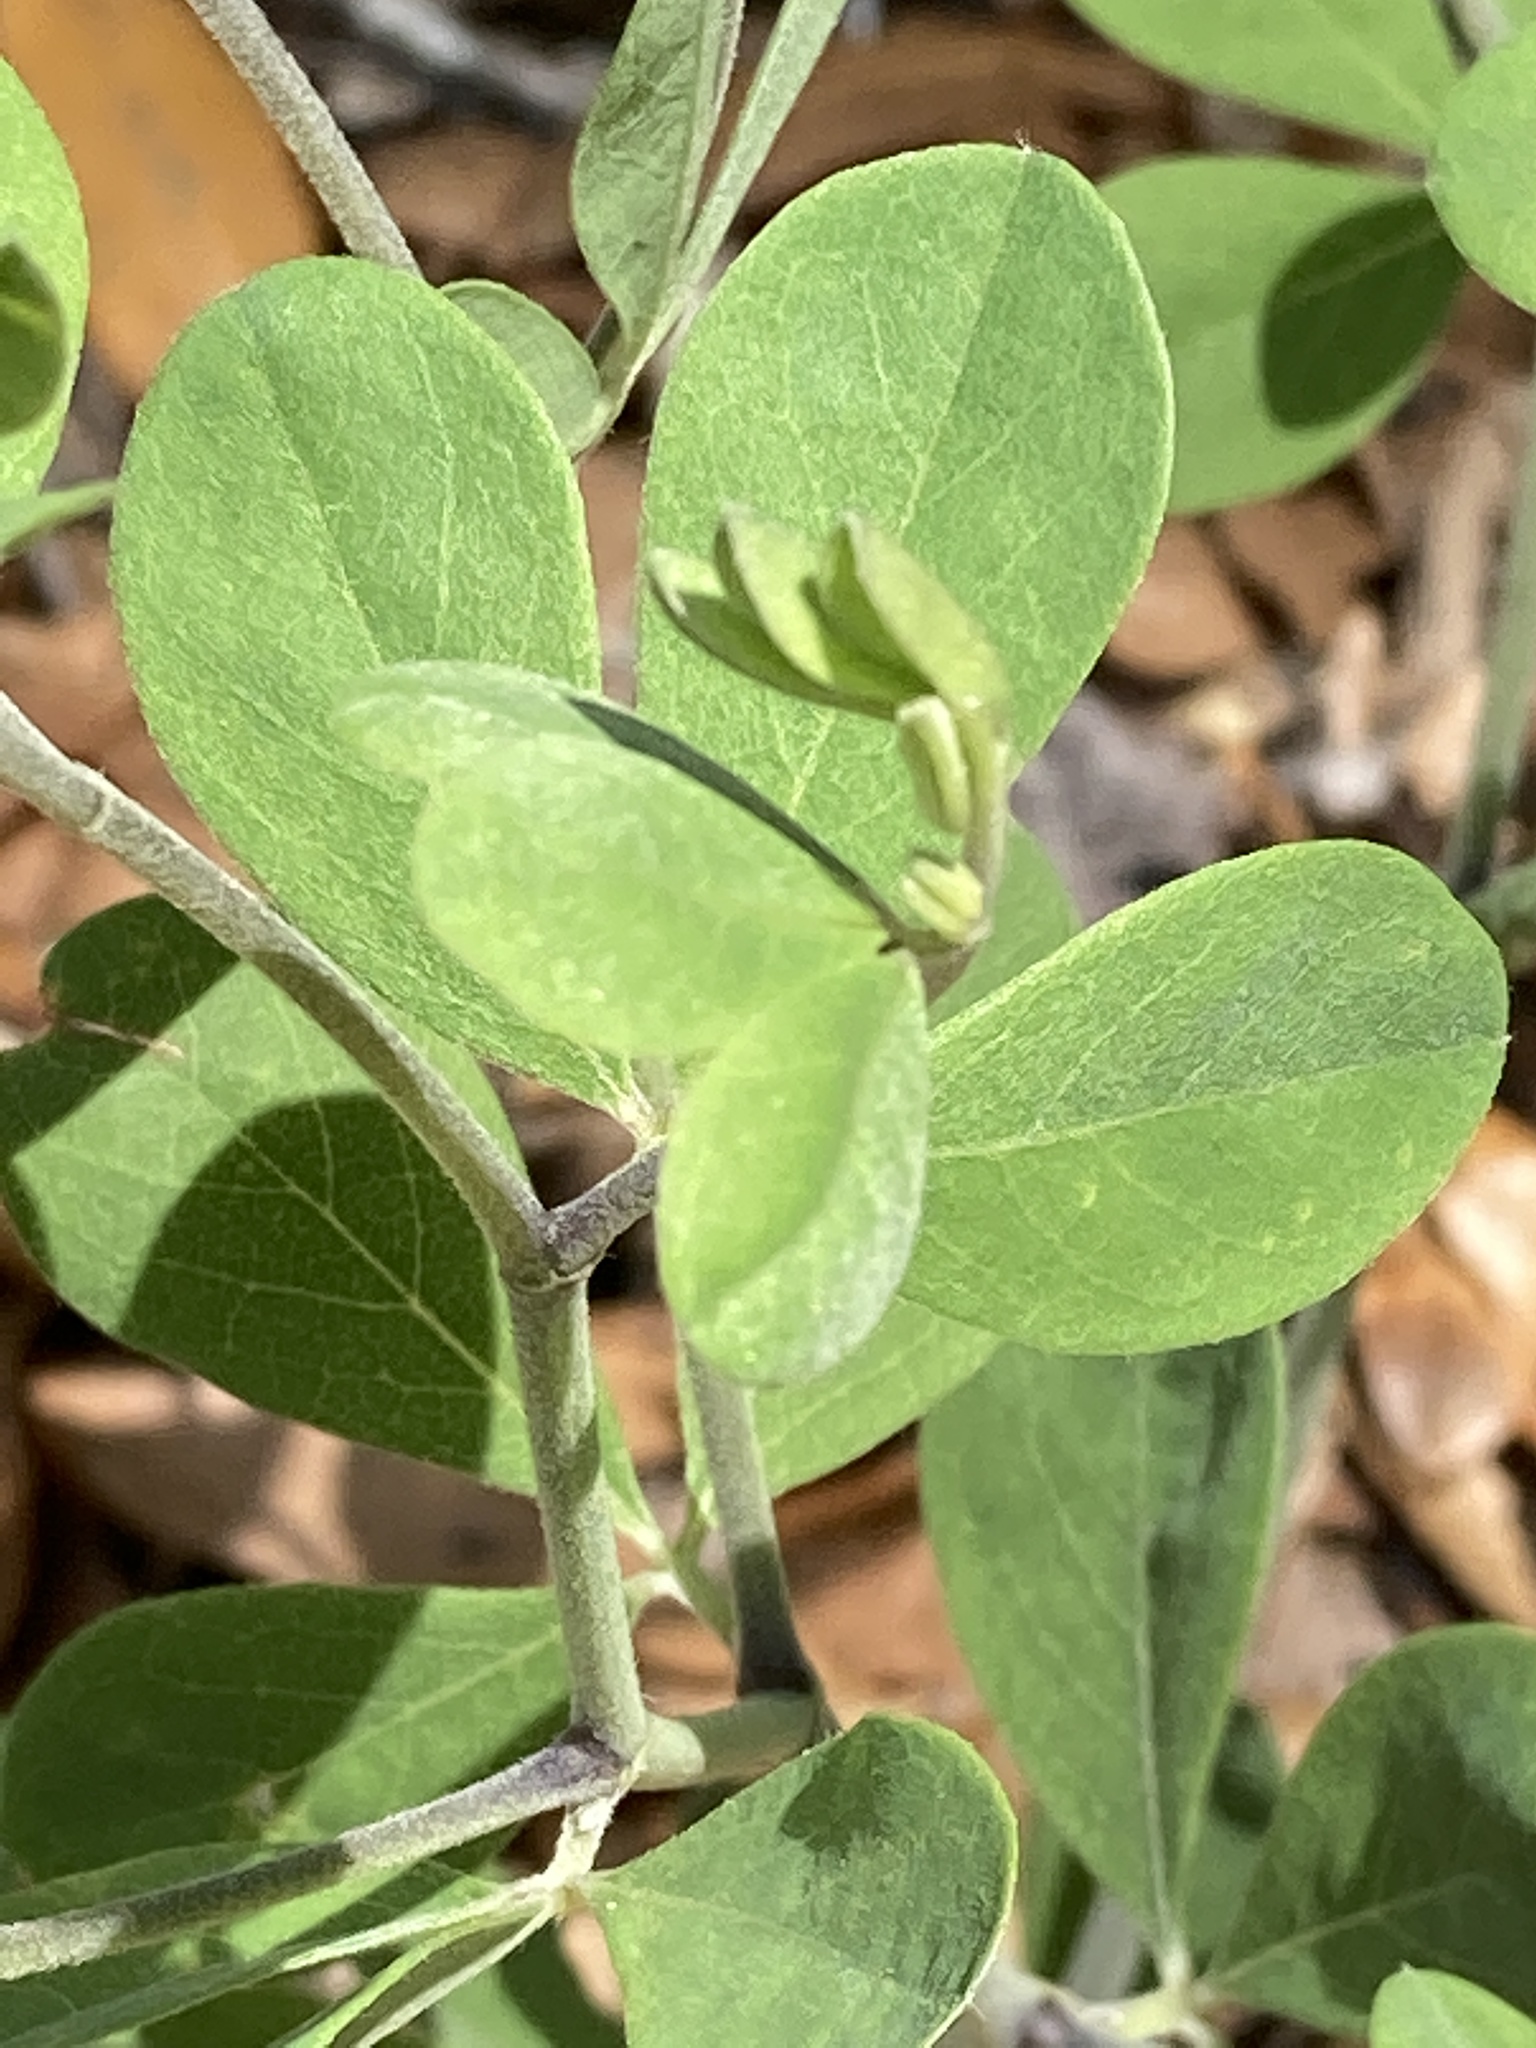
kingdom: Plantae
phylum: Tracheophyta
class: Magnoliopsida
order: Fabales
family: Fabaceae
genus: Baptisia
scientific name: Baptisia lecontei
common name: Pineland wild indigo
